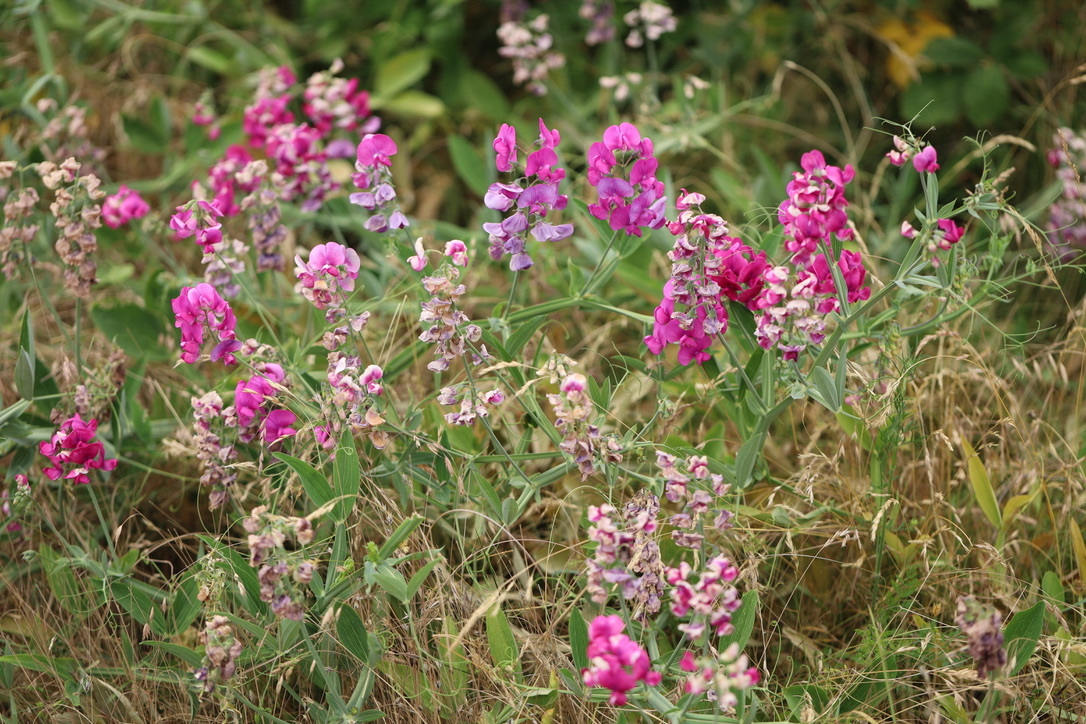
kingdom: Plantae
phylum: Tracheophyta
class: Magnoliopsida
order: Fabales
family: Fabaceae
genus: Lathyrus
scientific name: Lathyrus latifolius
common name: Perennial pea
